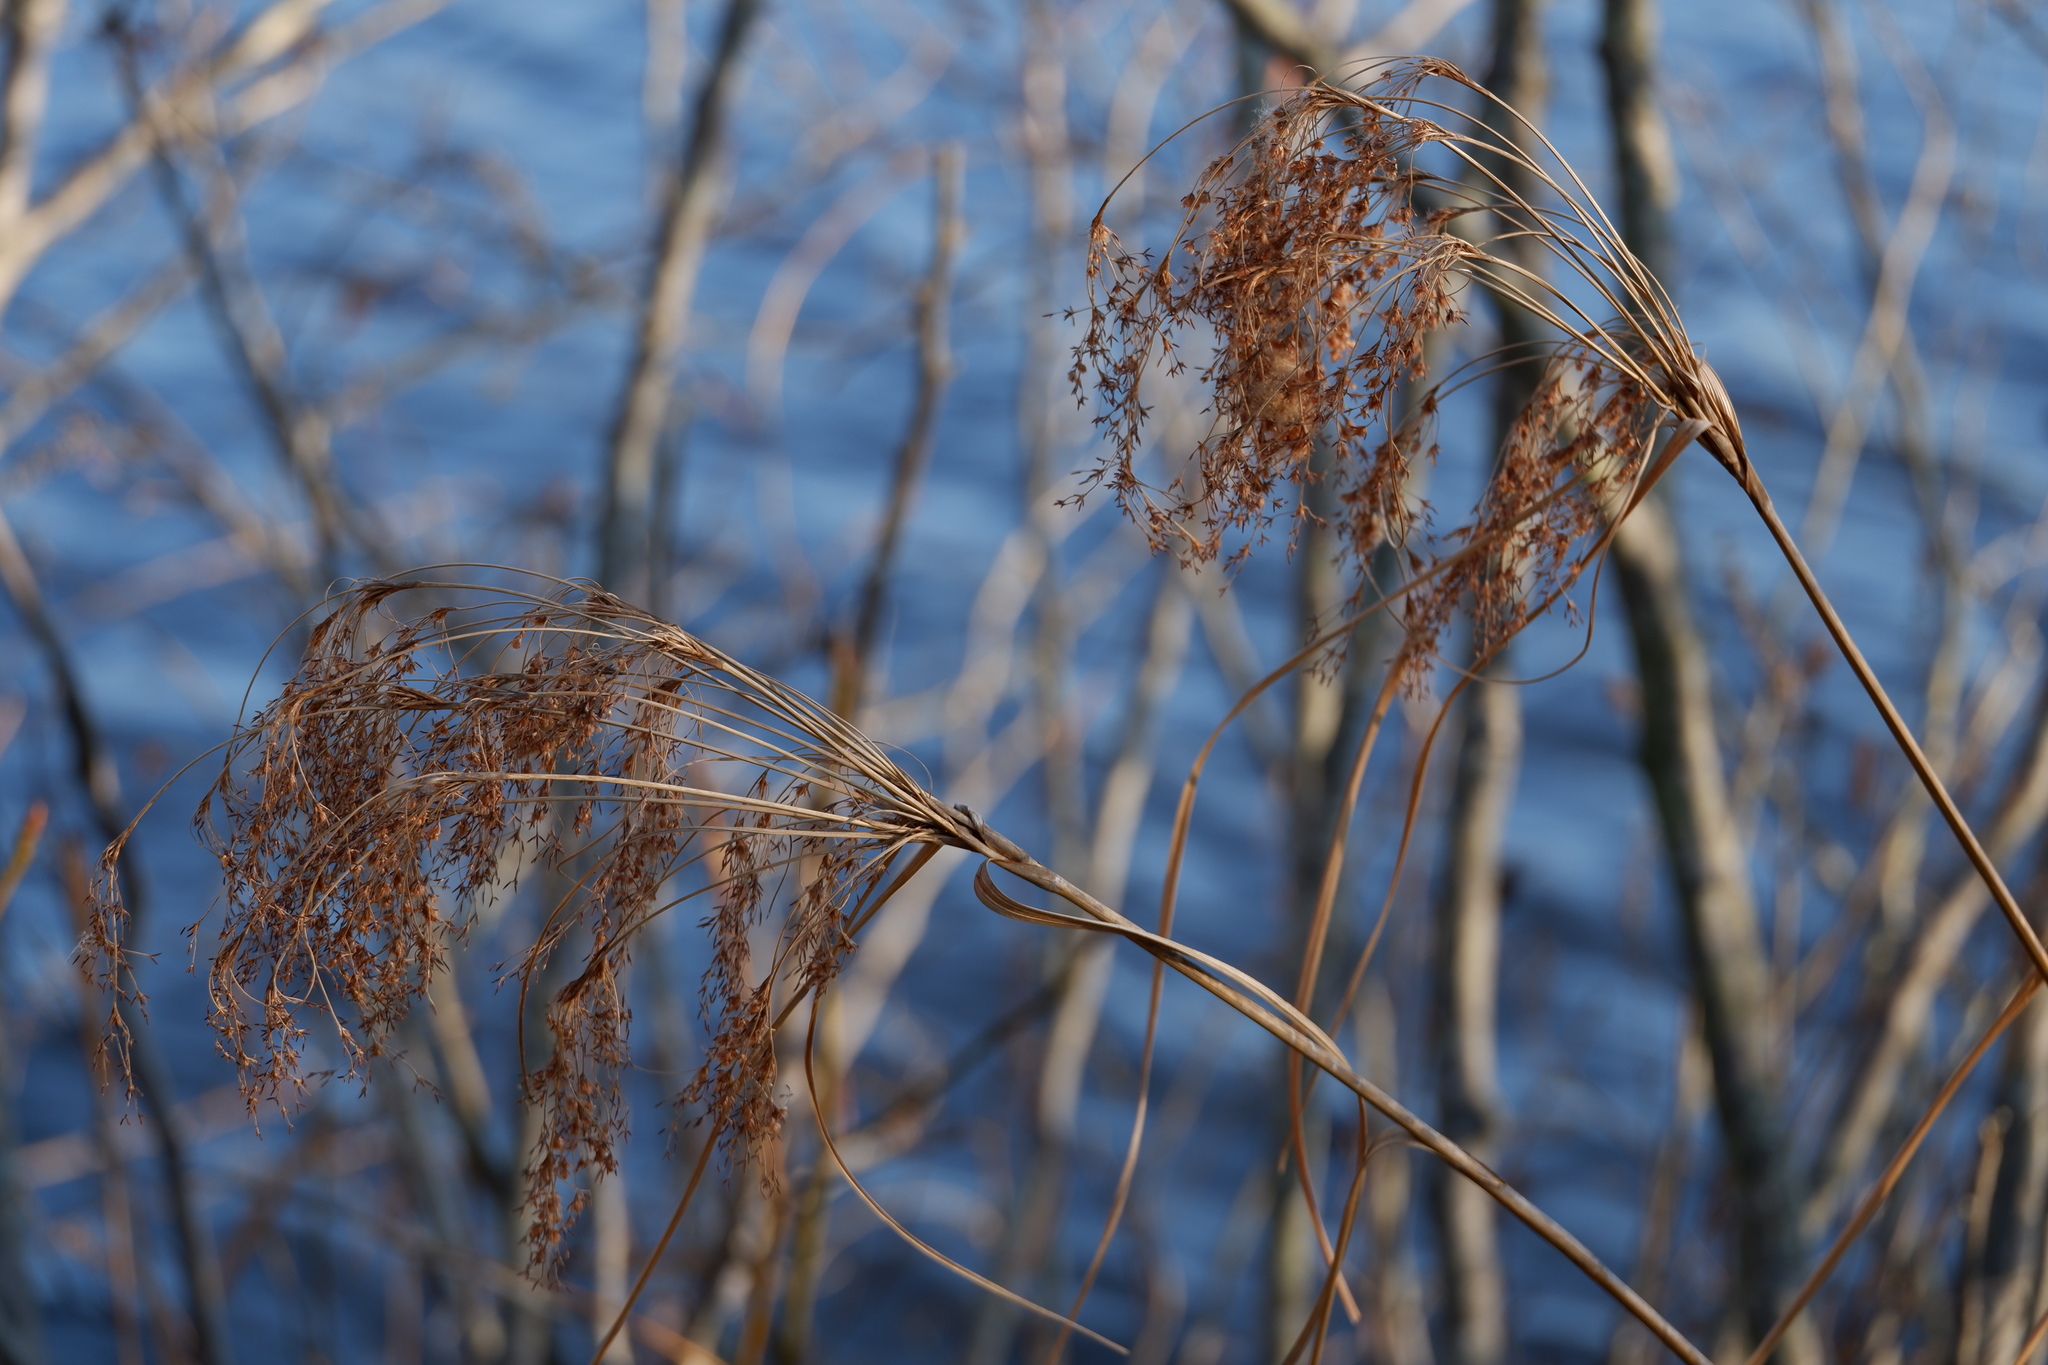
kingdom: Plantae
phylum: Tracheophyta
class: Liliopsida
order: Poales
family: Cyperaceae
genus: Scirpus
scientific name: Scirpus cyperinus
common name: Black-sheathed bulrush
